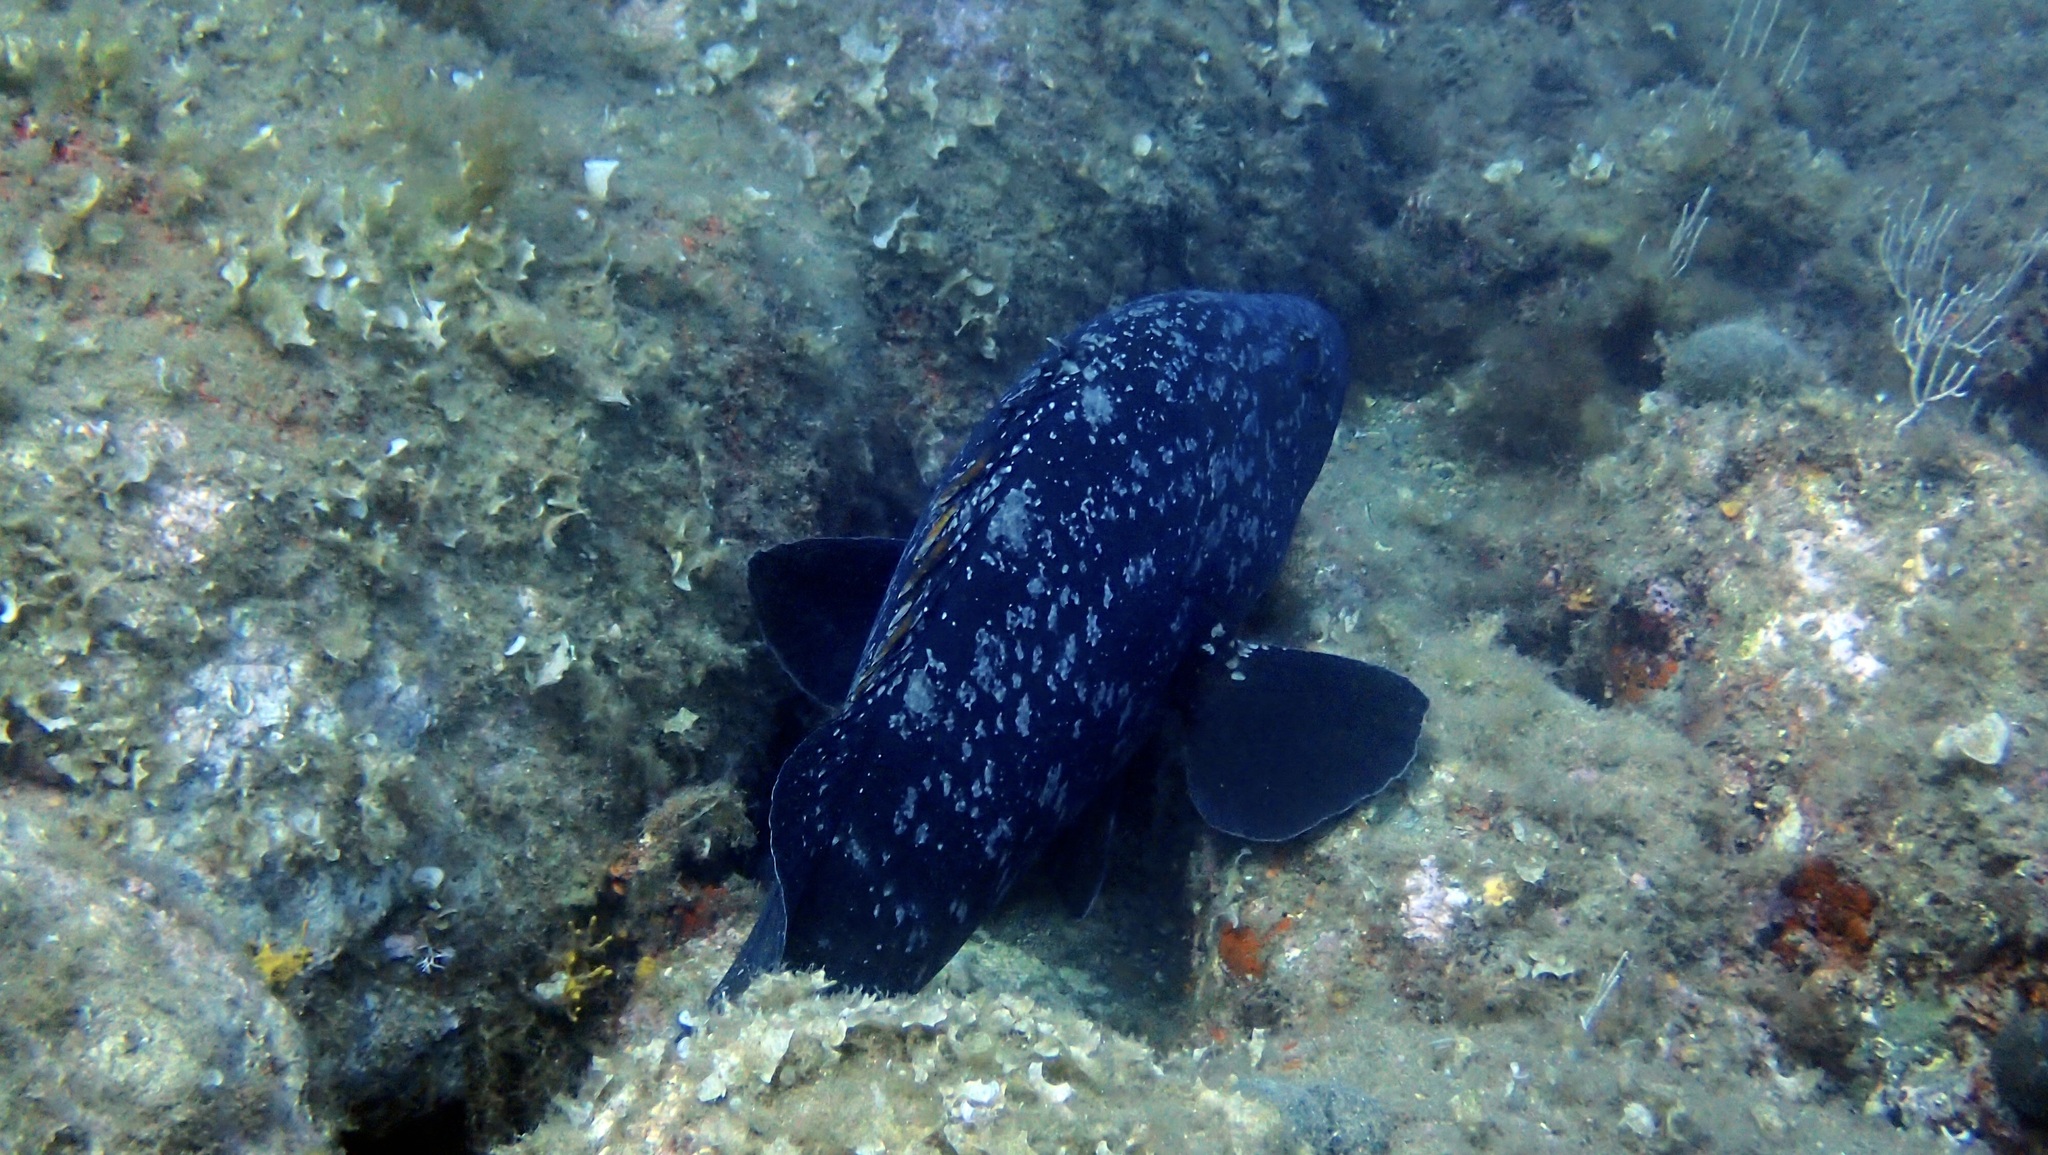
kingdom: Animalia
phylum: Chordata
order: Perciformes
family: Serranidae
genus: Epinephelus
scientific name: Epinephelus marginatus
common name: Dusky grouper
